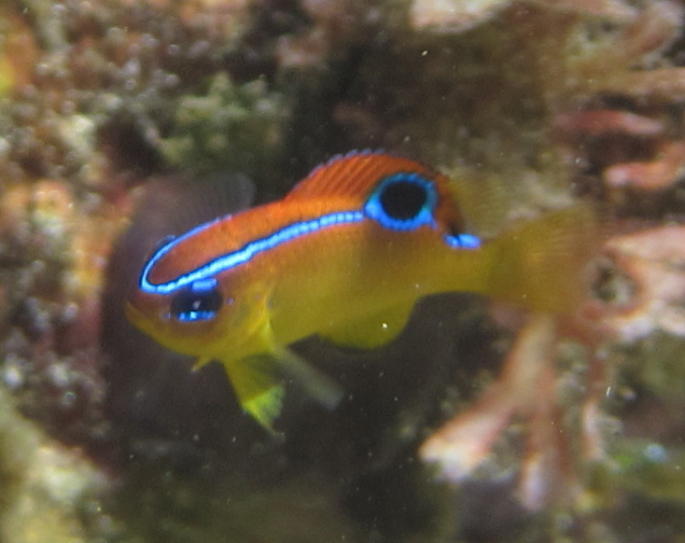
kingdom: Animalia
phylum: Chordata
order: Perciformes
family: Pomacentridae
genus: Chrysiptera
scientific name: Chrysiptera unimaculata
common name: Onespot demoiselle
